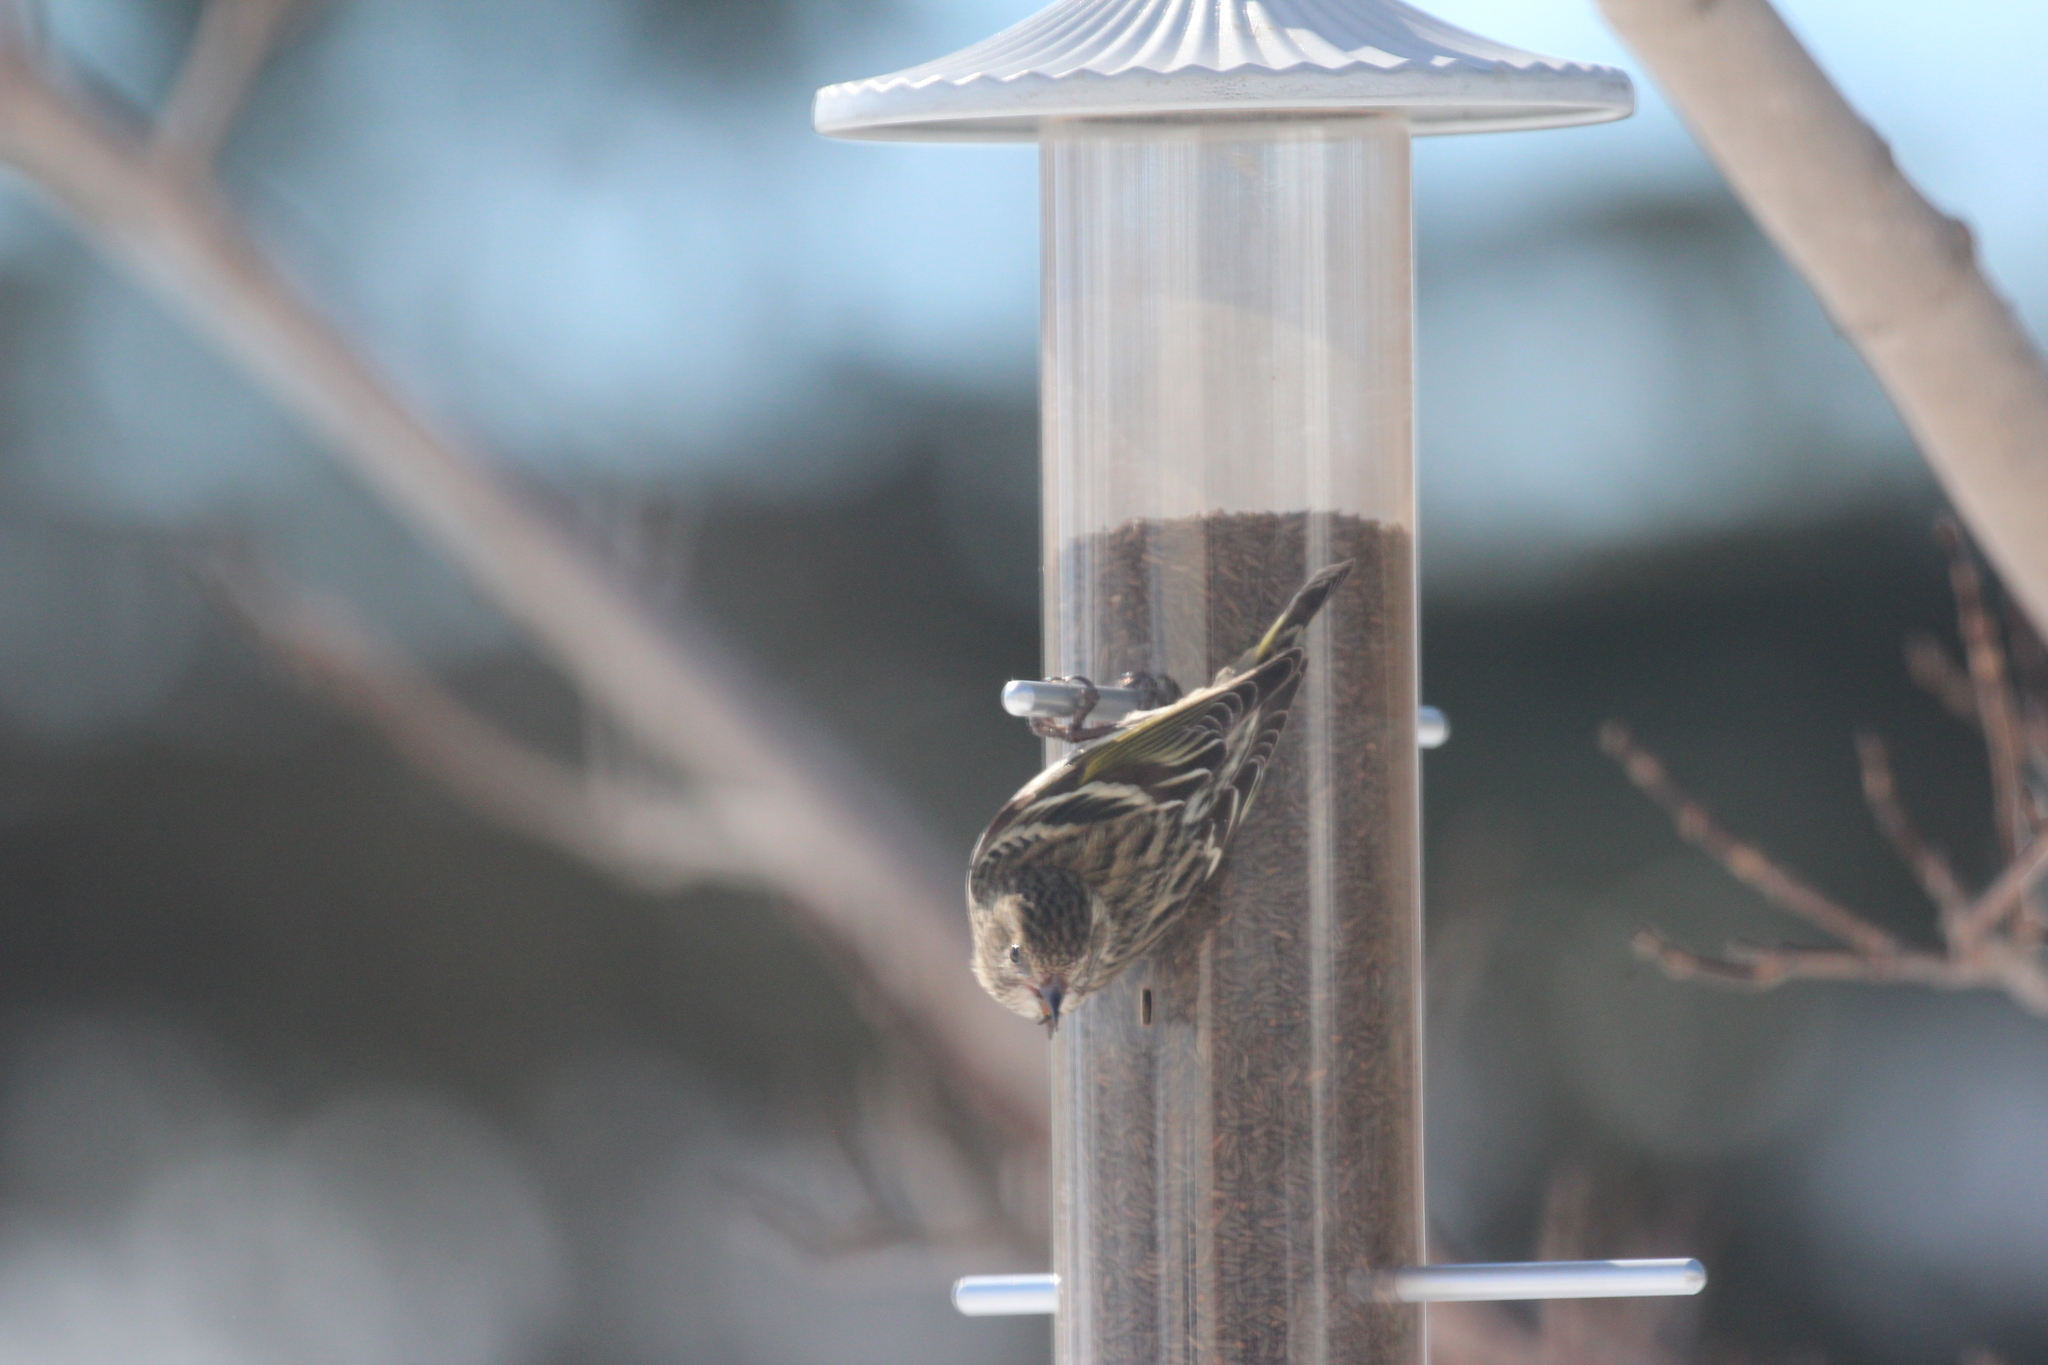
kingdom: Animalia
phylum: Chordata
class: Aves
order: Passeriformes
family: Fringillidae
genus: Spinus
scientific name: Spinus pinus
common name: Pine siskin
